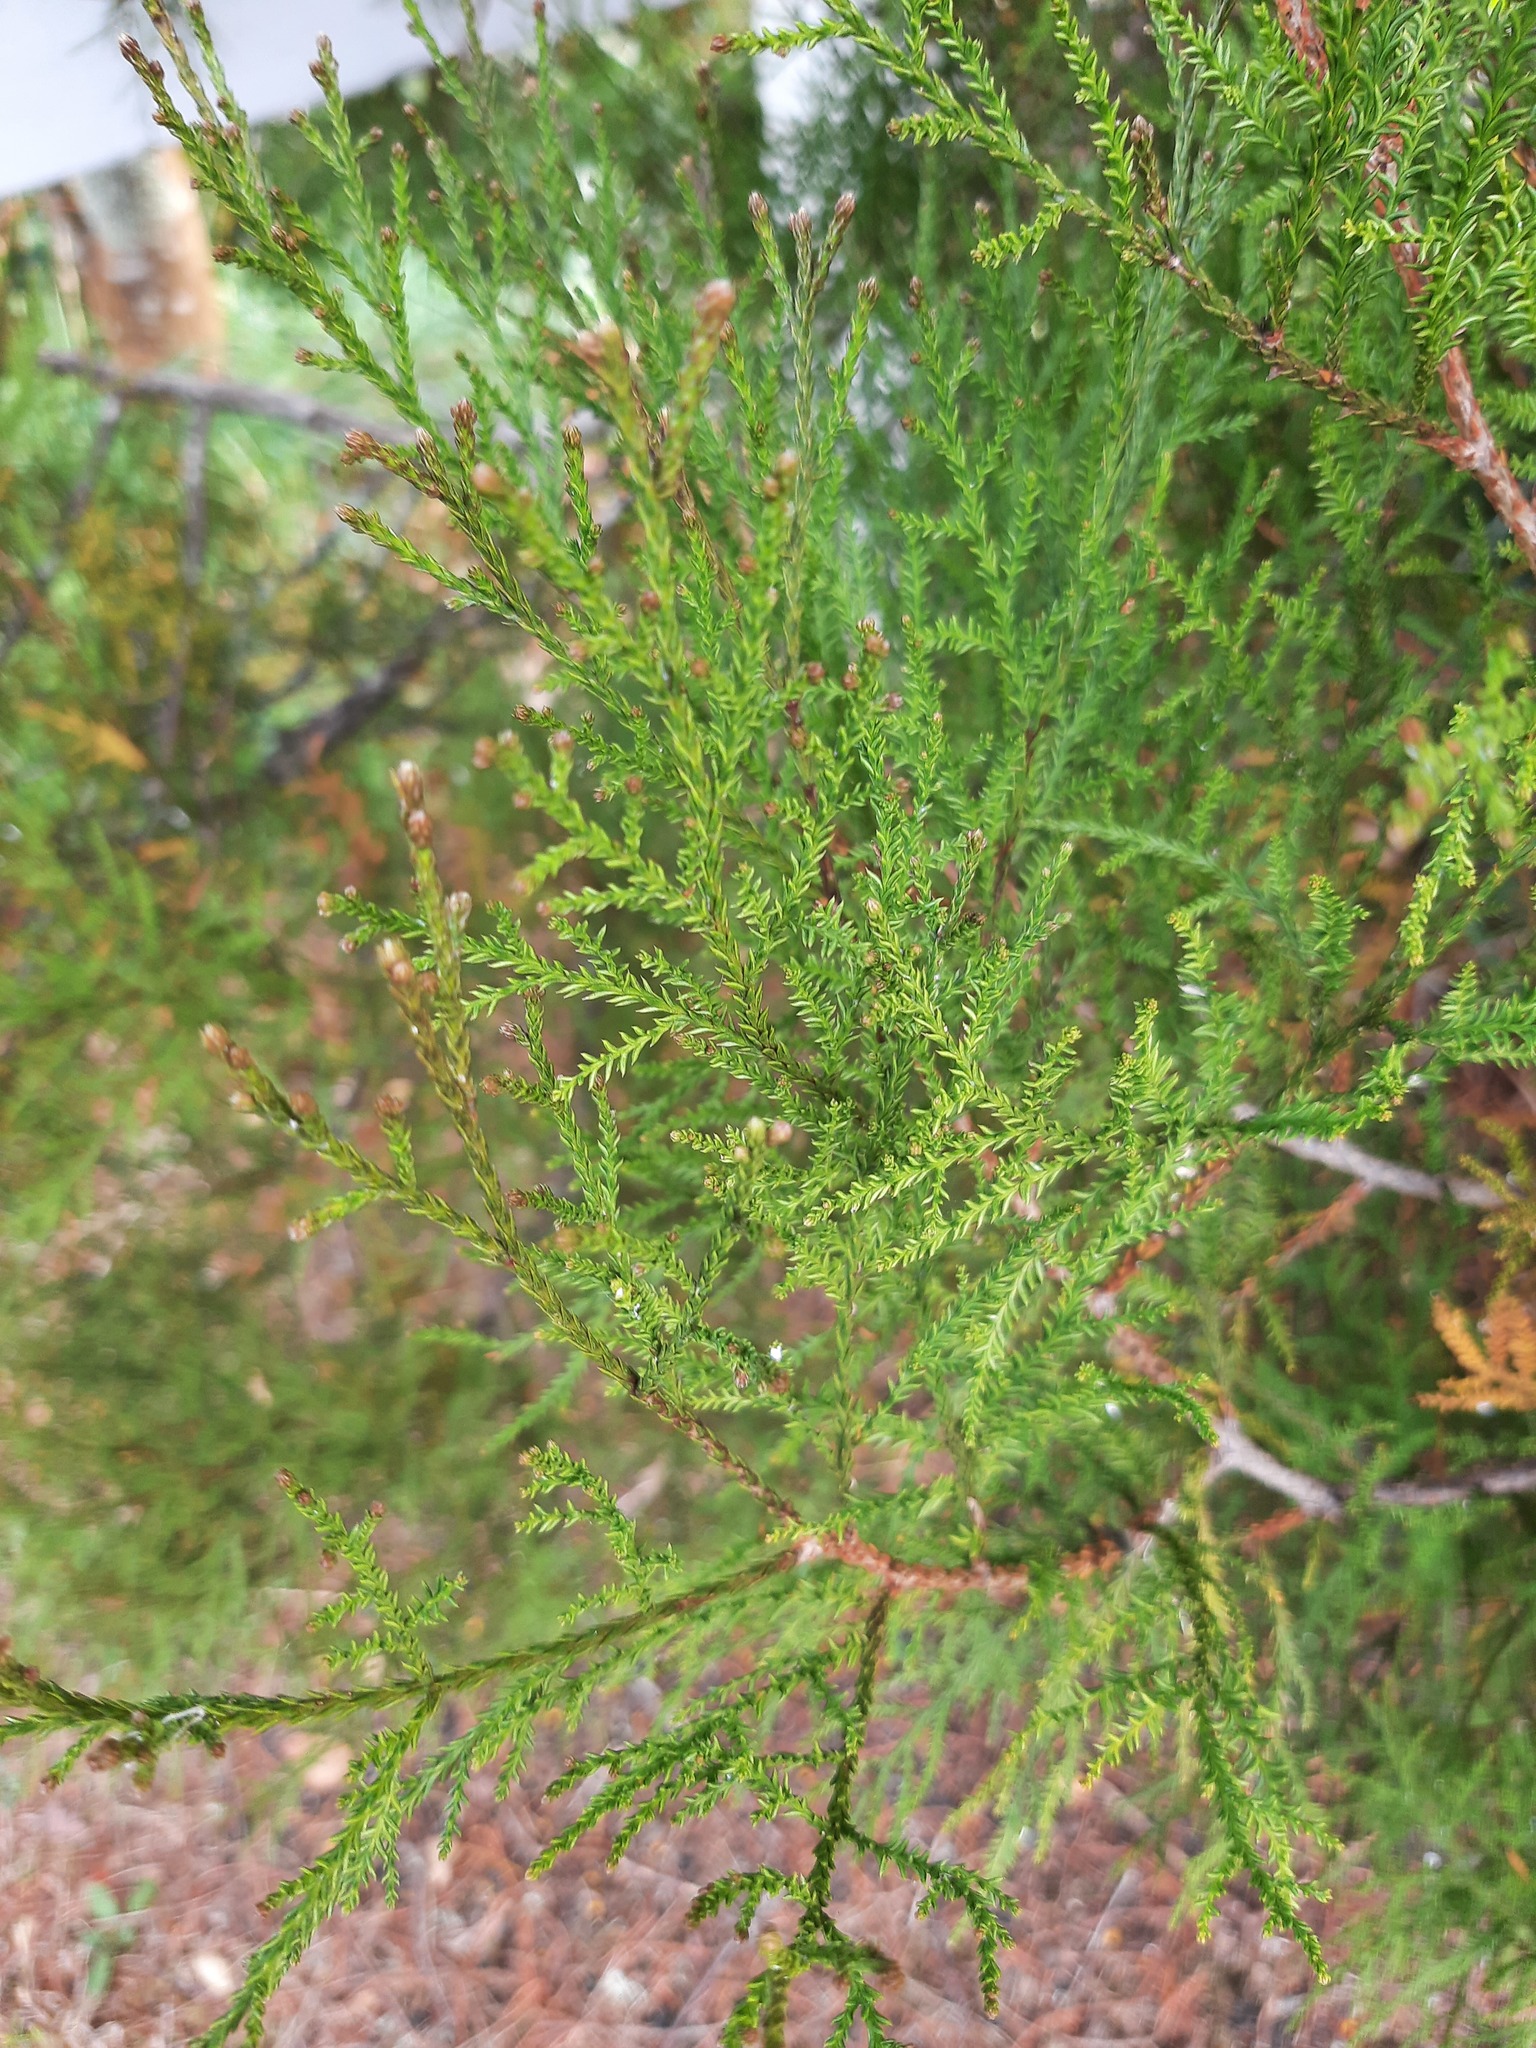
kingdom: Plantae
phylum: Tracheophyta
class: Pinopsida
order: Pinales
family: Podocarpaceae
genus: Dacrycarpus
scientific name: Dacrycarpus dacrydioides
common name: White pine
